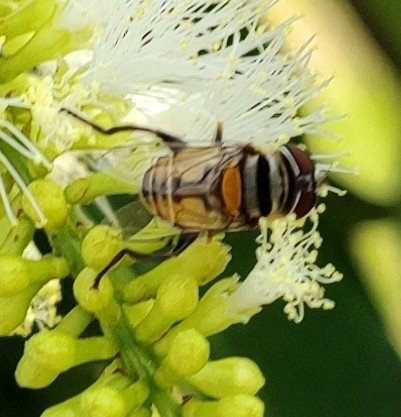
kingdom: Animalia
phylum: Arthropoda
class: Insecta
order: Diptera
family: Syrphidae
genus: Palpada
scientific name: Palpada agrorum
